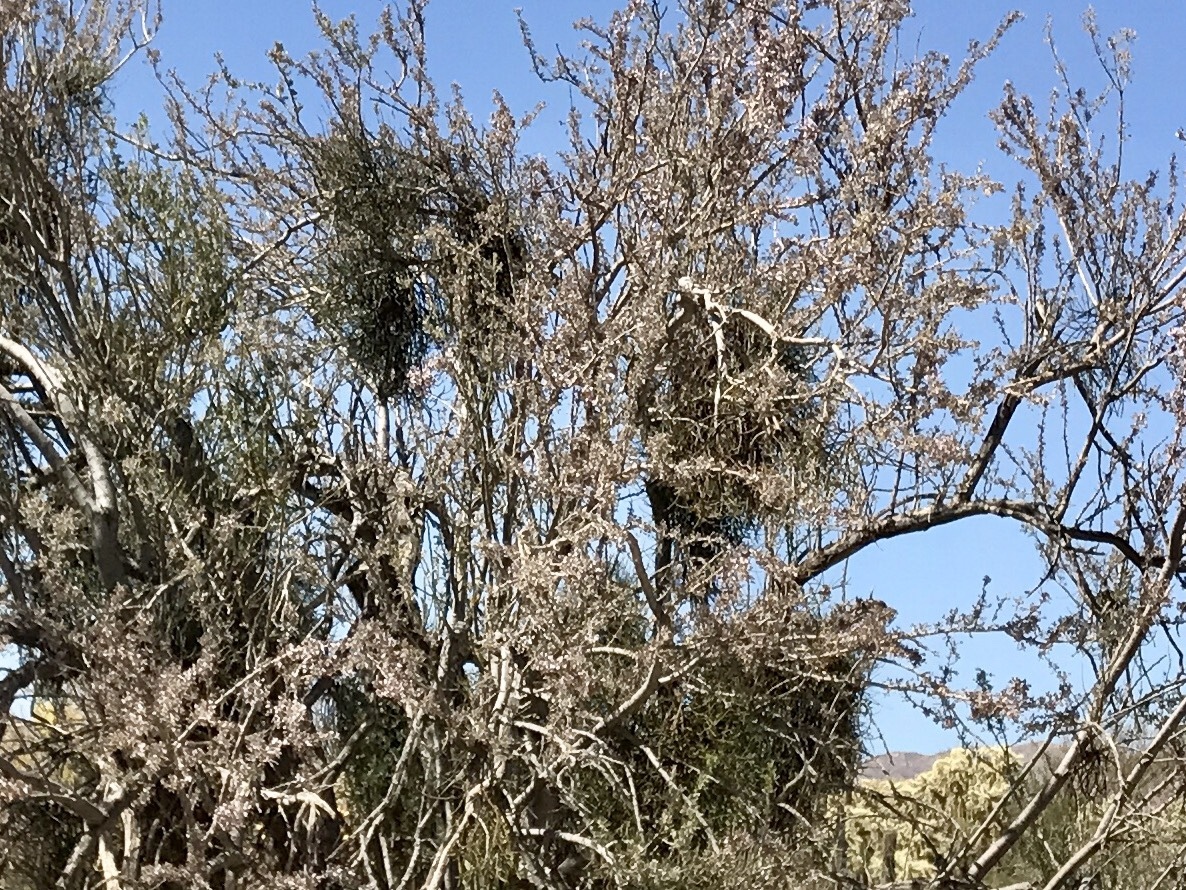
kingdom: Plantae
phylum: Tracheophyta
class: Magnoliopsida
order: Fabales
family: Fabaceae
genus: Olneya
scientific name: Olneya tesota
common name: Desert ironwood
